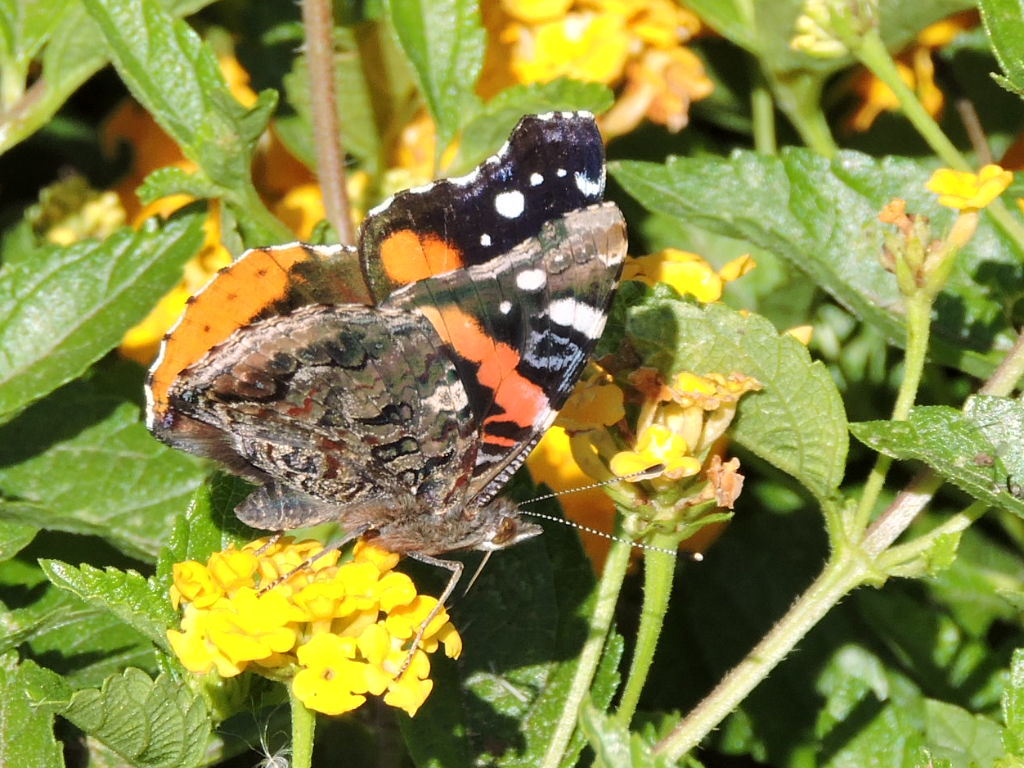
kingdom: Animalia
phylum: Arthropoda
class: Insecta
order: Lepidoptera
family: Nymphalidae
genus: Vanessa
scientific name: Vanessa atalanta
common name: Red admiral
